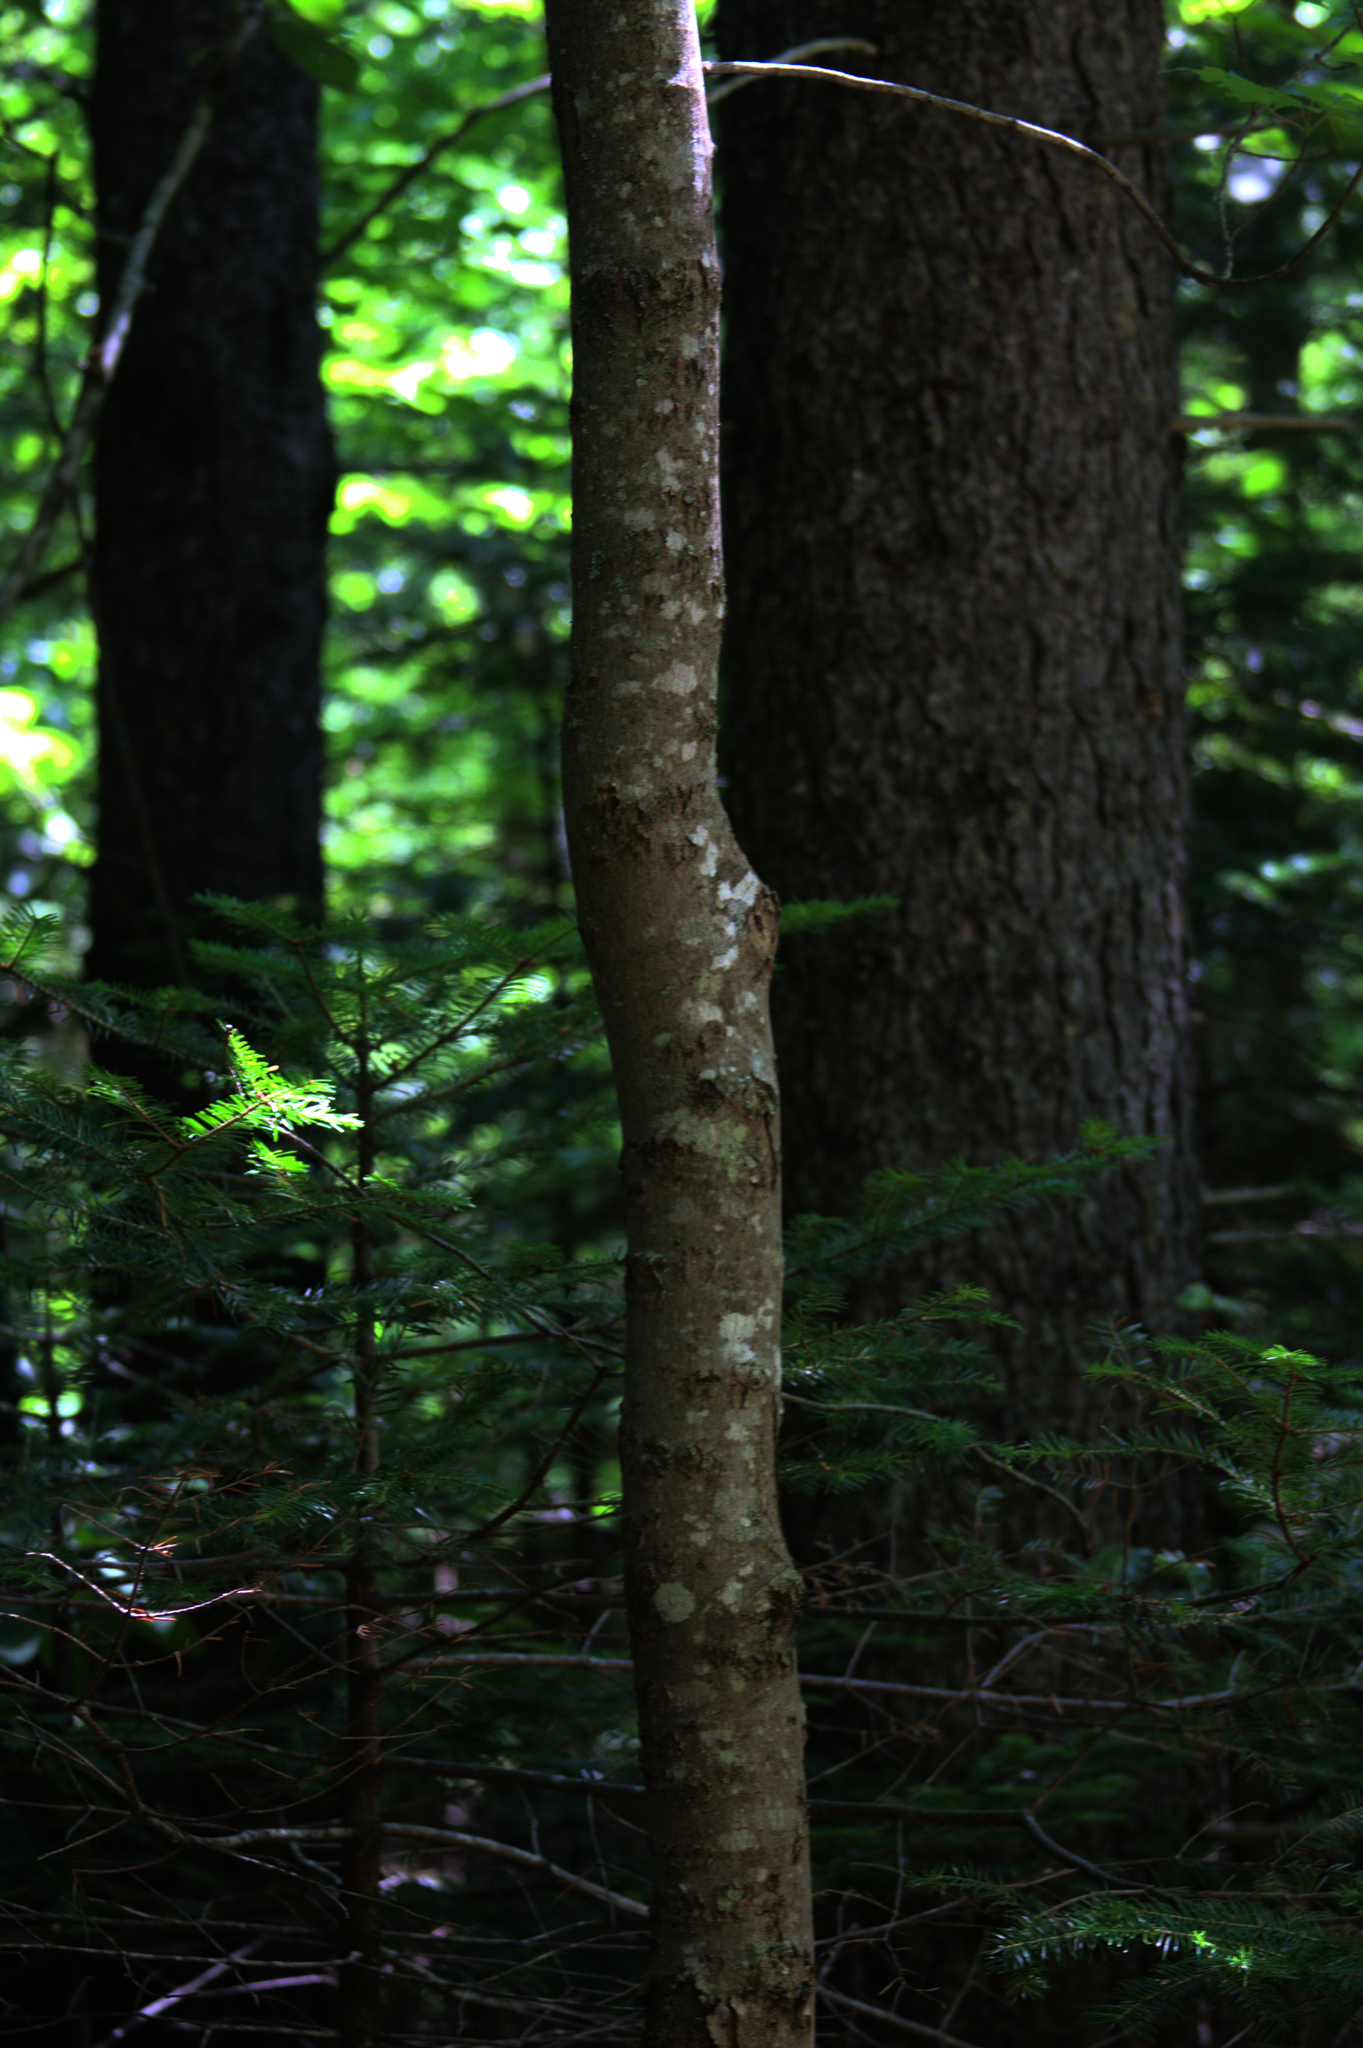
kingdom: Plantae
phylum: Tracheophyta
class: Magnoliopsida
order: Sapindales
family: Sapindaceae
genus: Acer
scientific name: Acer rubrum
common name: Red maple
